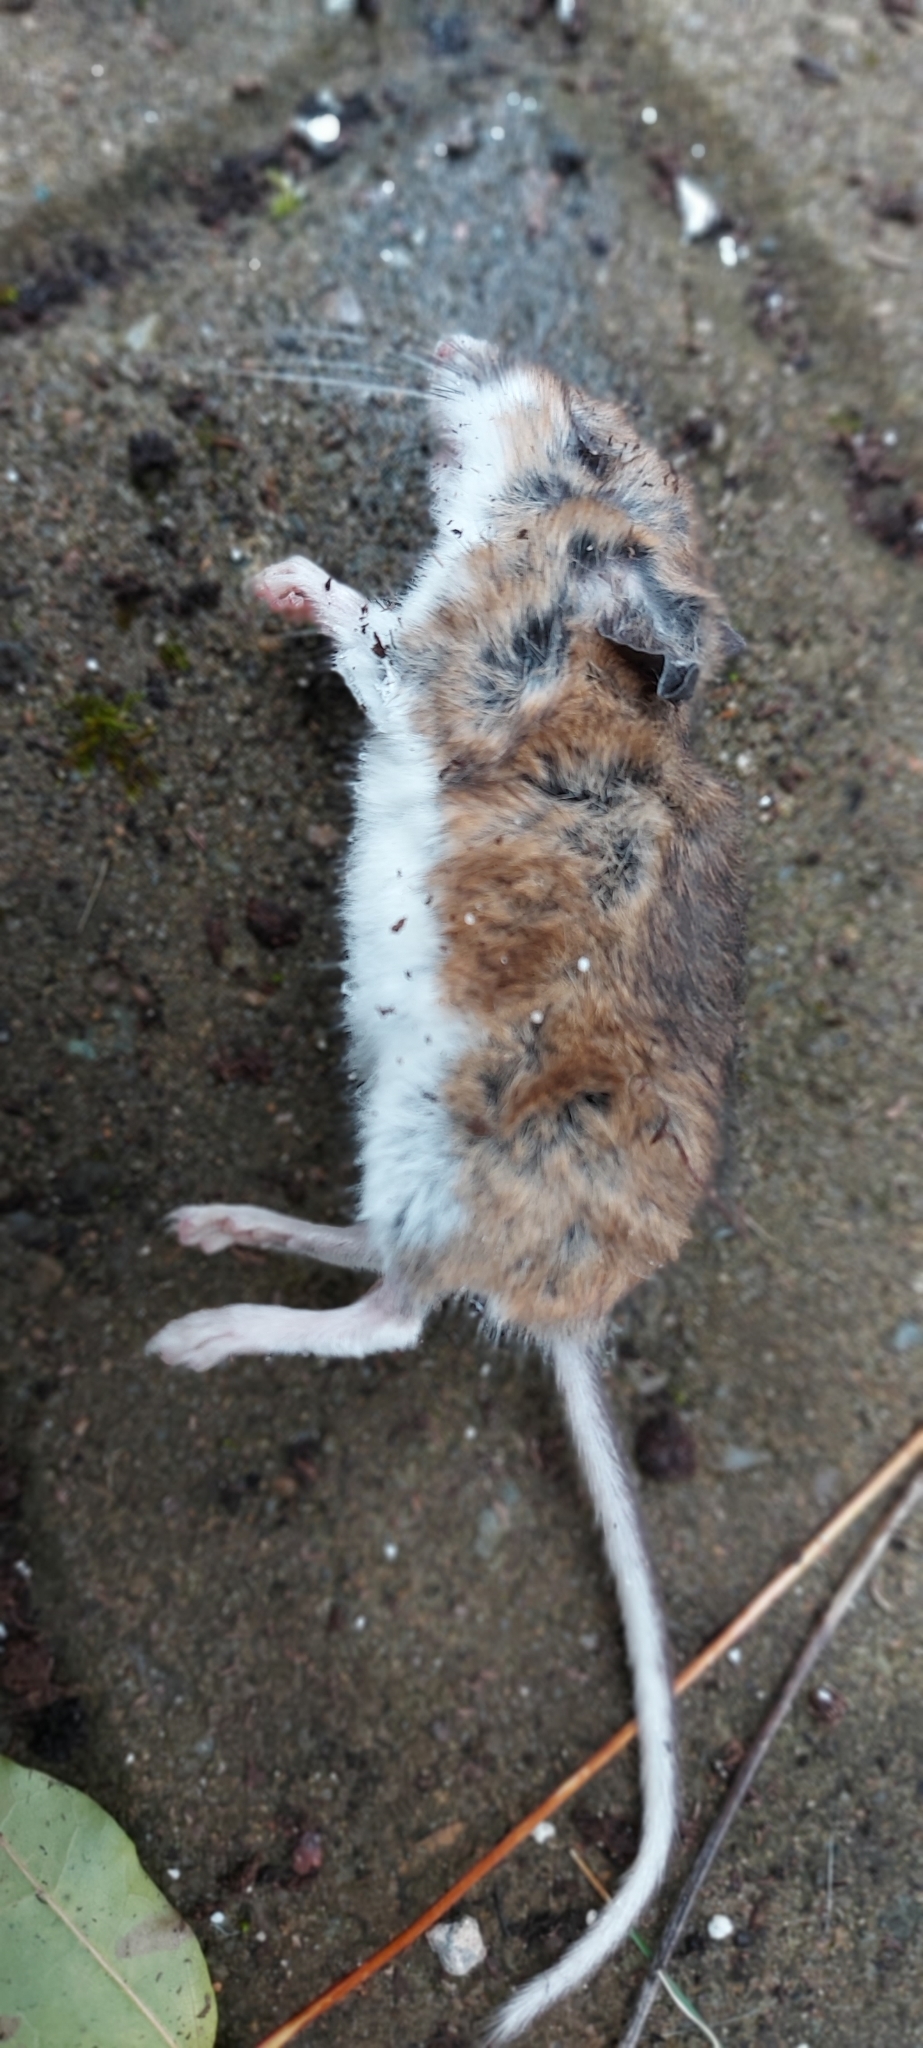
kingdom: Animalia
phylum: Chordata
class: Mammalia
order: Rodentia
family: Cricetidae
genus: Peromyscus
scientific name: Peromyscus maniculatus
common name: Deer mouse
